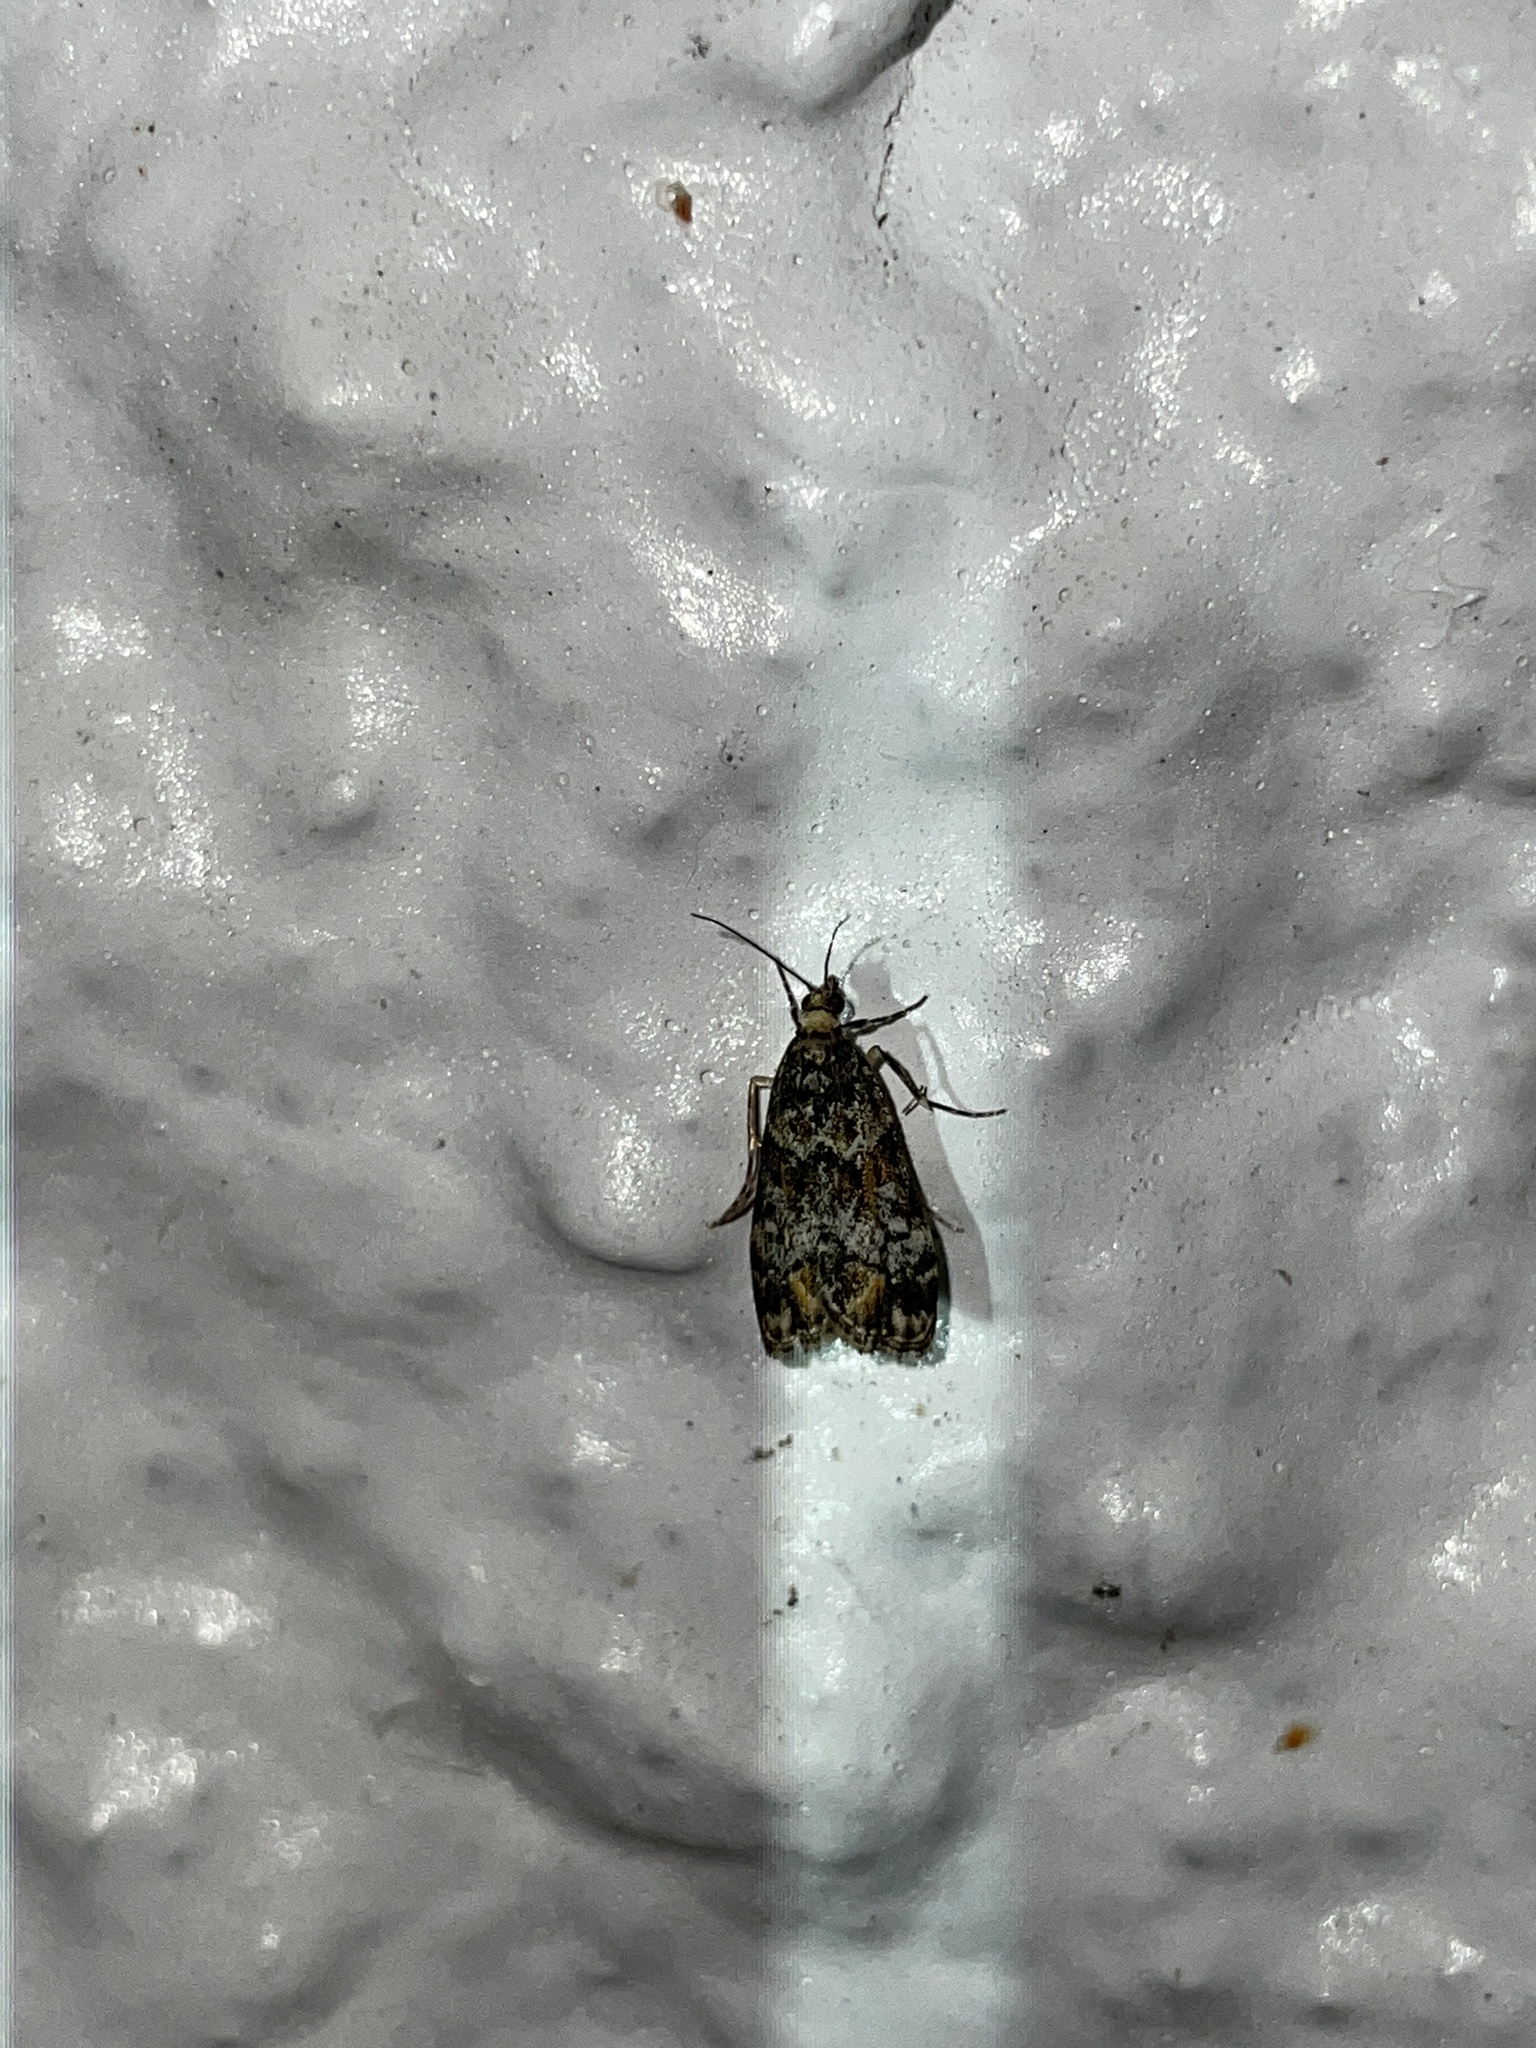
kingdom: Animalia
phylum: Arthropoda
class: Insecta
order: Lepidoptera
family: Crambidae
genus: Eudonia
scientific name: Eudonia minualis
